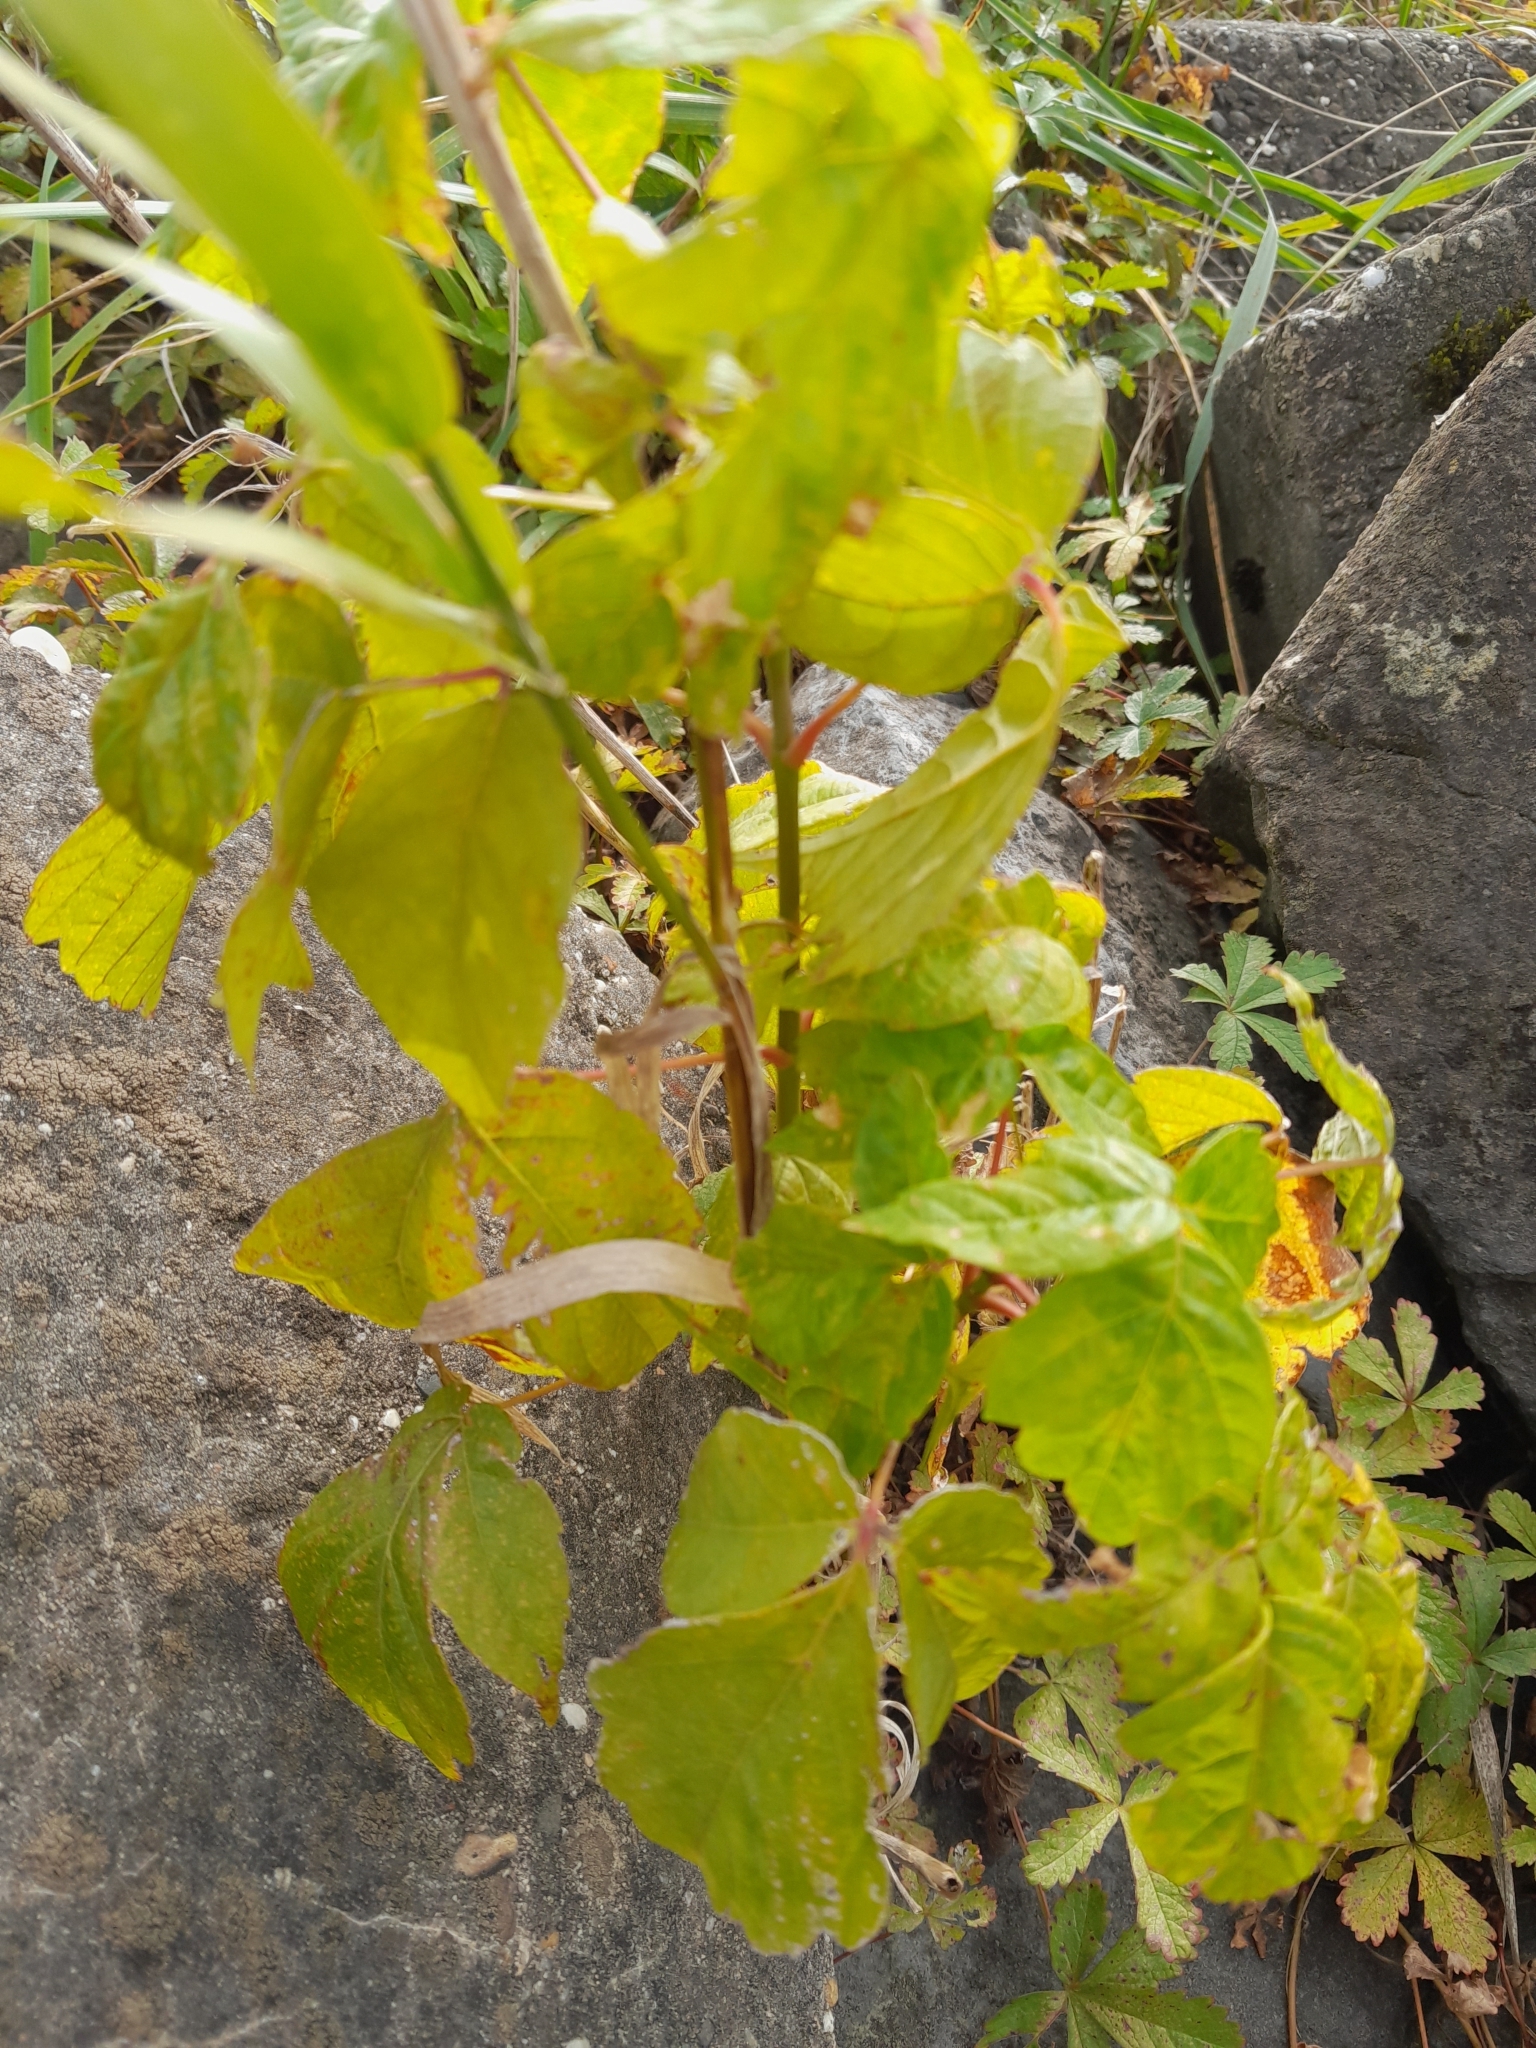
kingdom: Plantae
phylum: Tracheophyta
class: Magnoliopsida
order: Sapindales
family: Sapindaceae
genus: Acer
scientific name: Acer negundo
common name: Ashleaf maple
